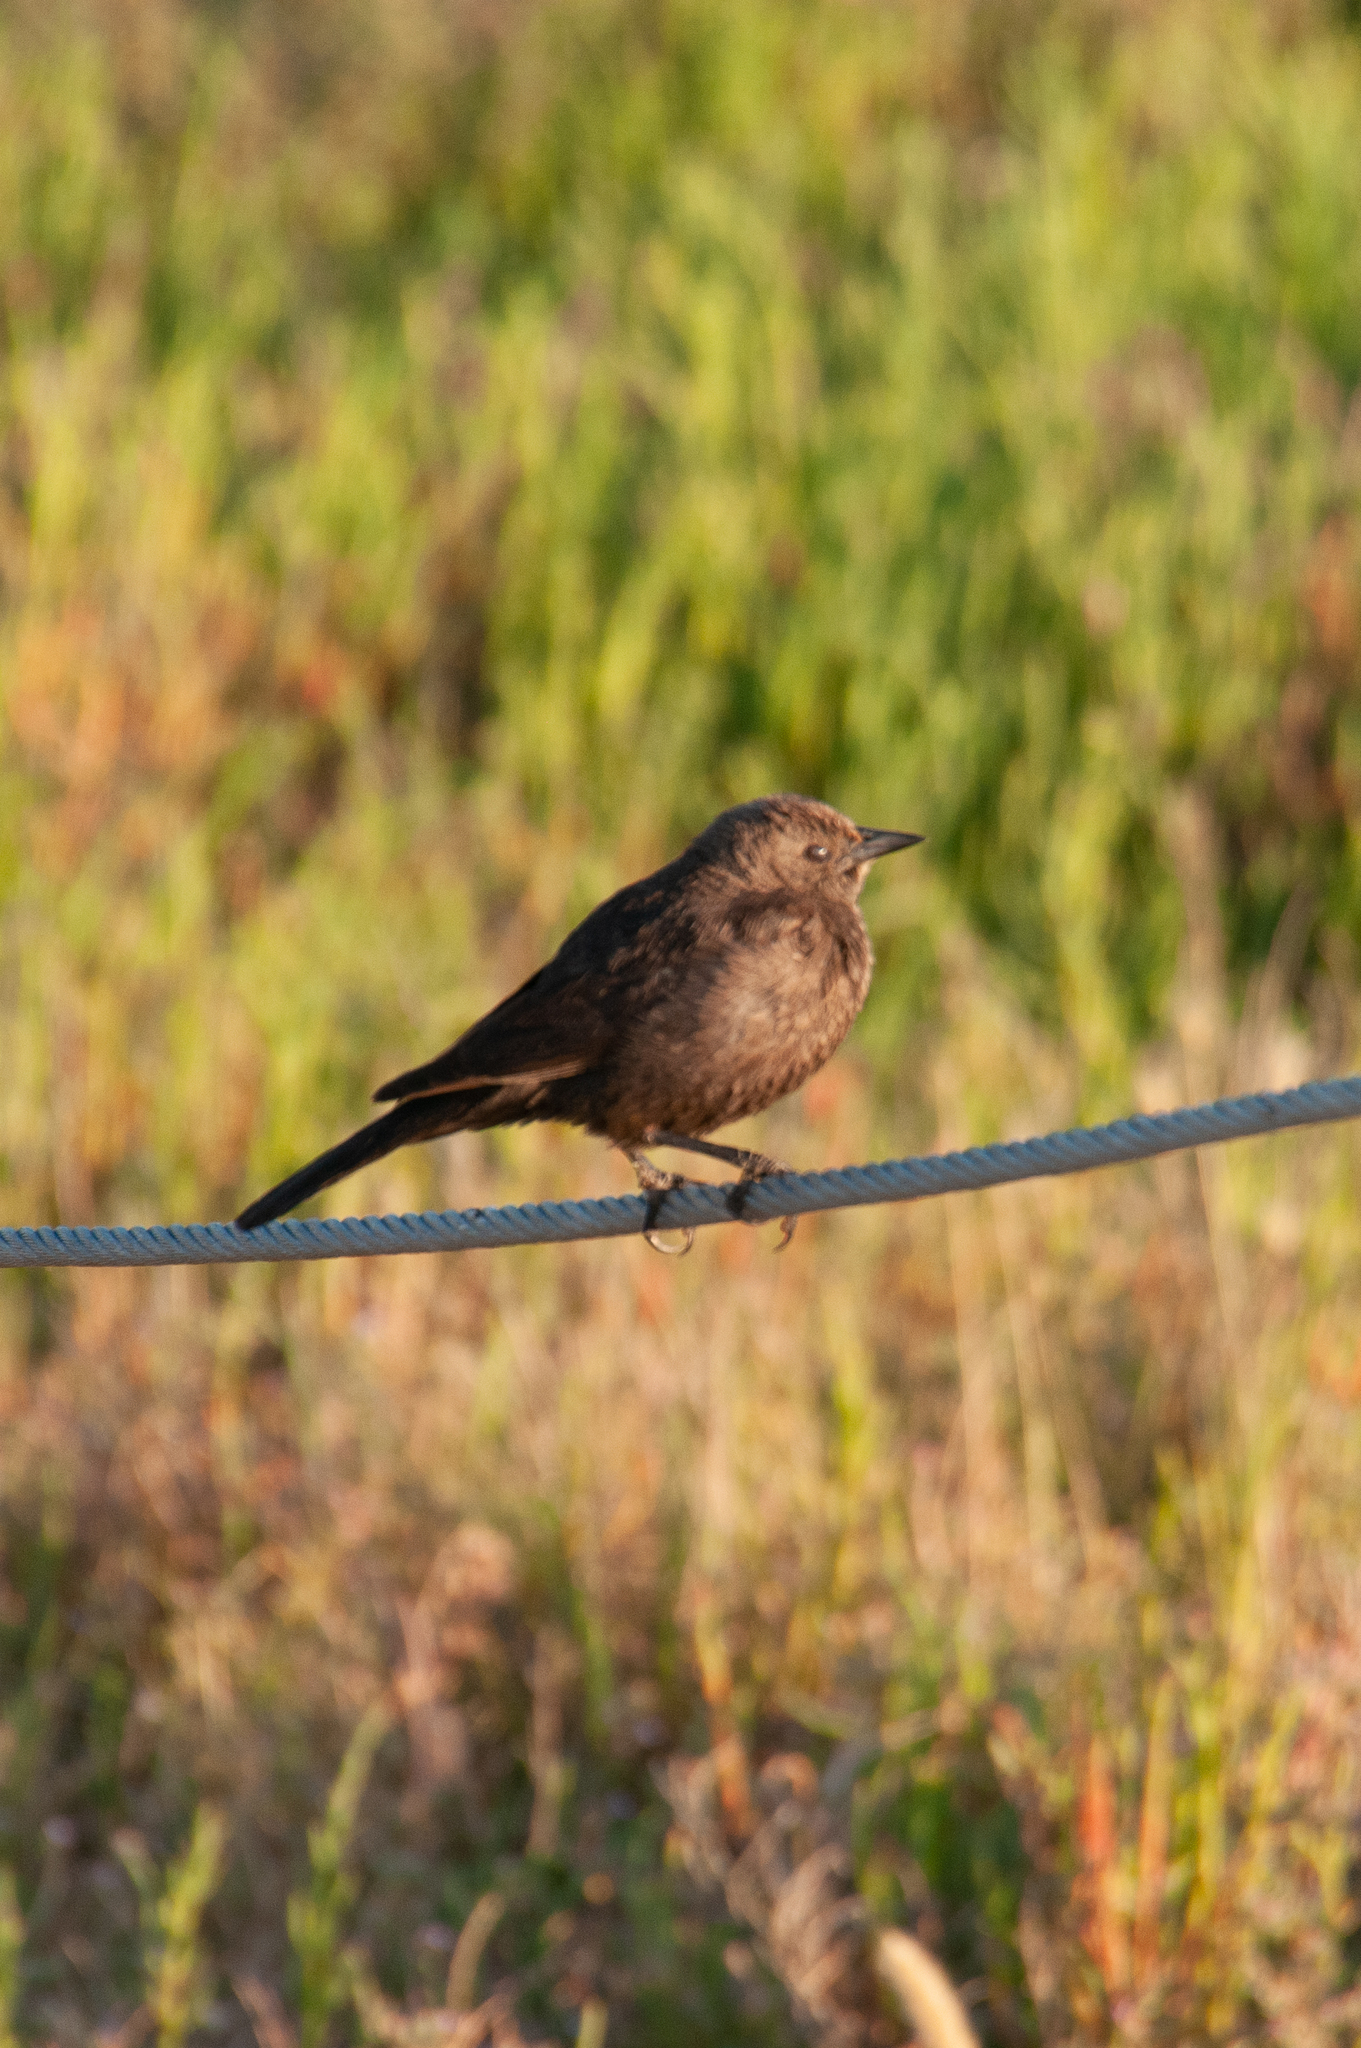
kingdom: Animalia
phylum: Chordata
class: Aves
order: Passeriformes
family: Icteridae
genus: Euphagus
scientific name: Euphagus cyanocephalus
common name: Brewer's blackbird
